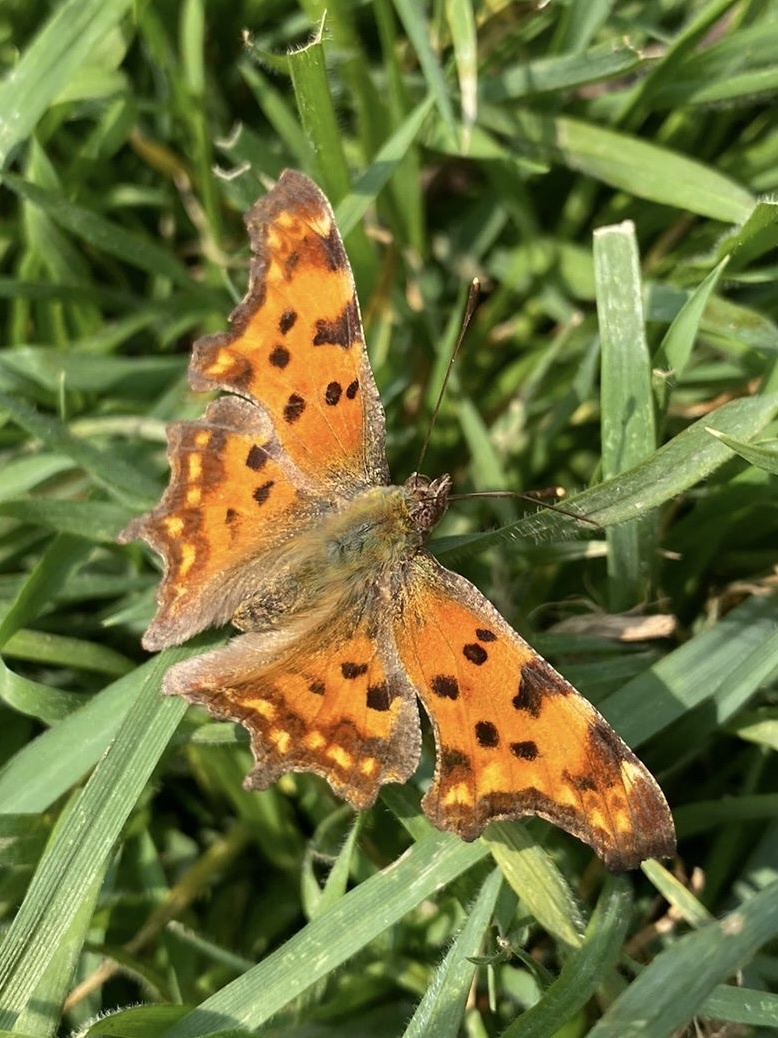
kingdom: Animalia
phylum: Arthropoda
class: Insecta
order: Lepidoptera
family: Nymphalidae
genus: Polygonia
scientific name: Polygonia c-album
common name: Comma
